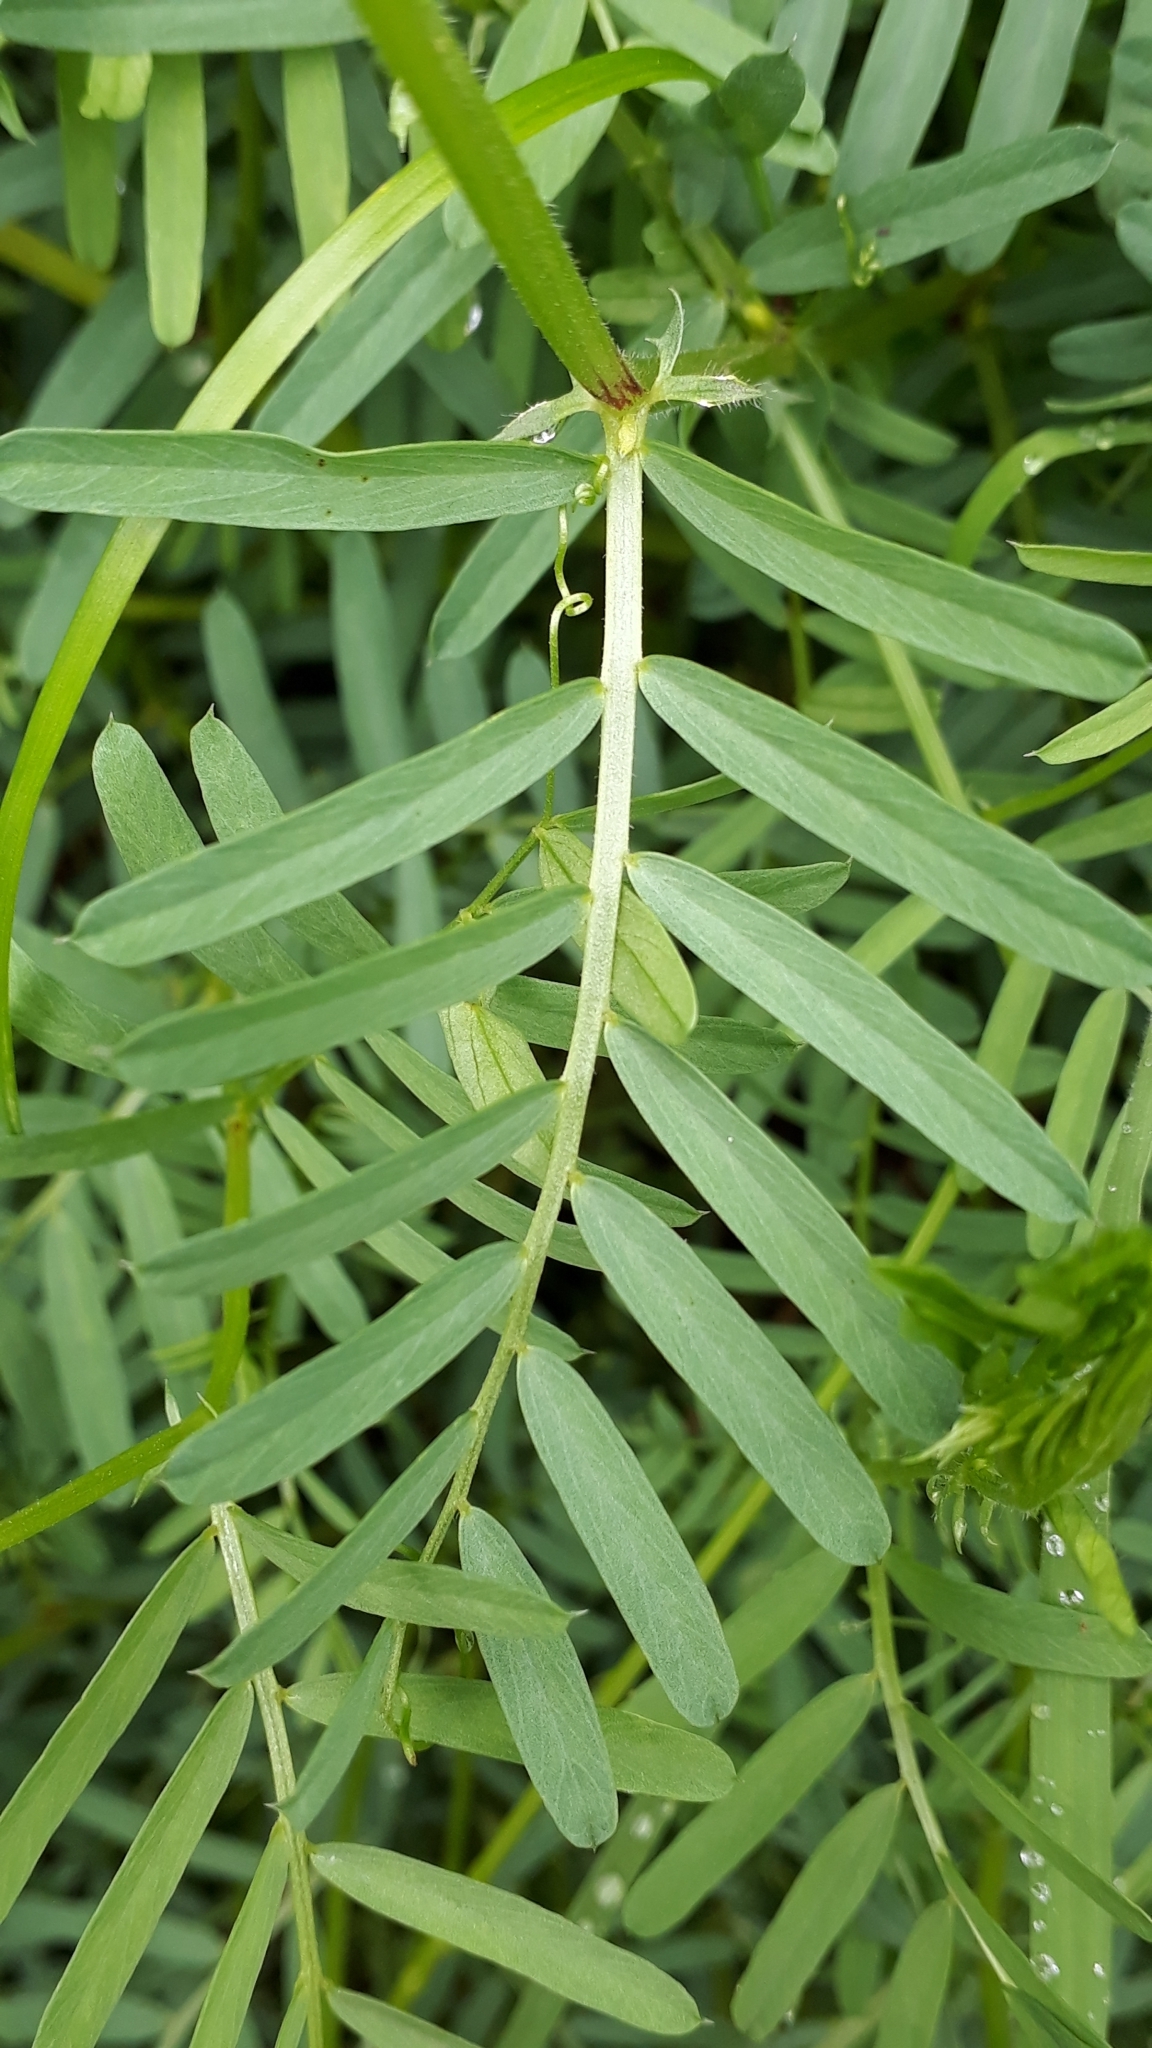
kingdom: Plantae
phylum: Tracheophyta
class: Magnoliopsida
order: Fabales
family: Fabaceae
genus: Vicia
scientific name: Vicia onobrychioides
